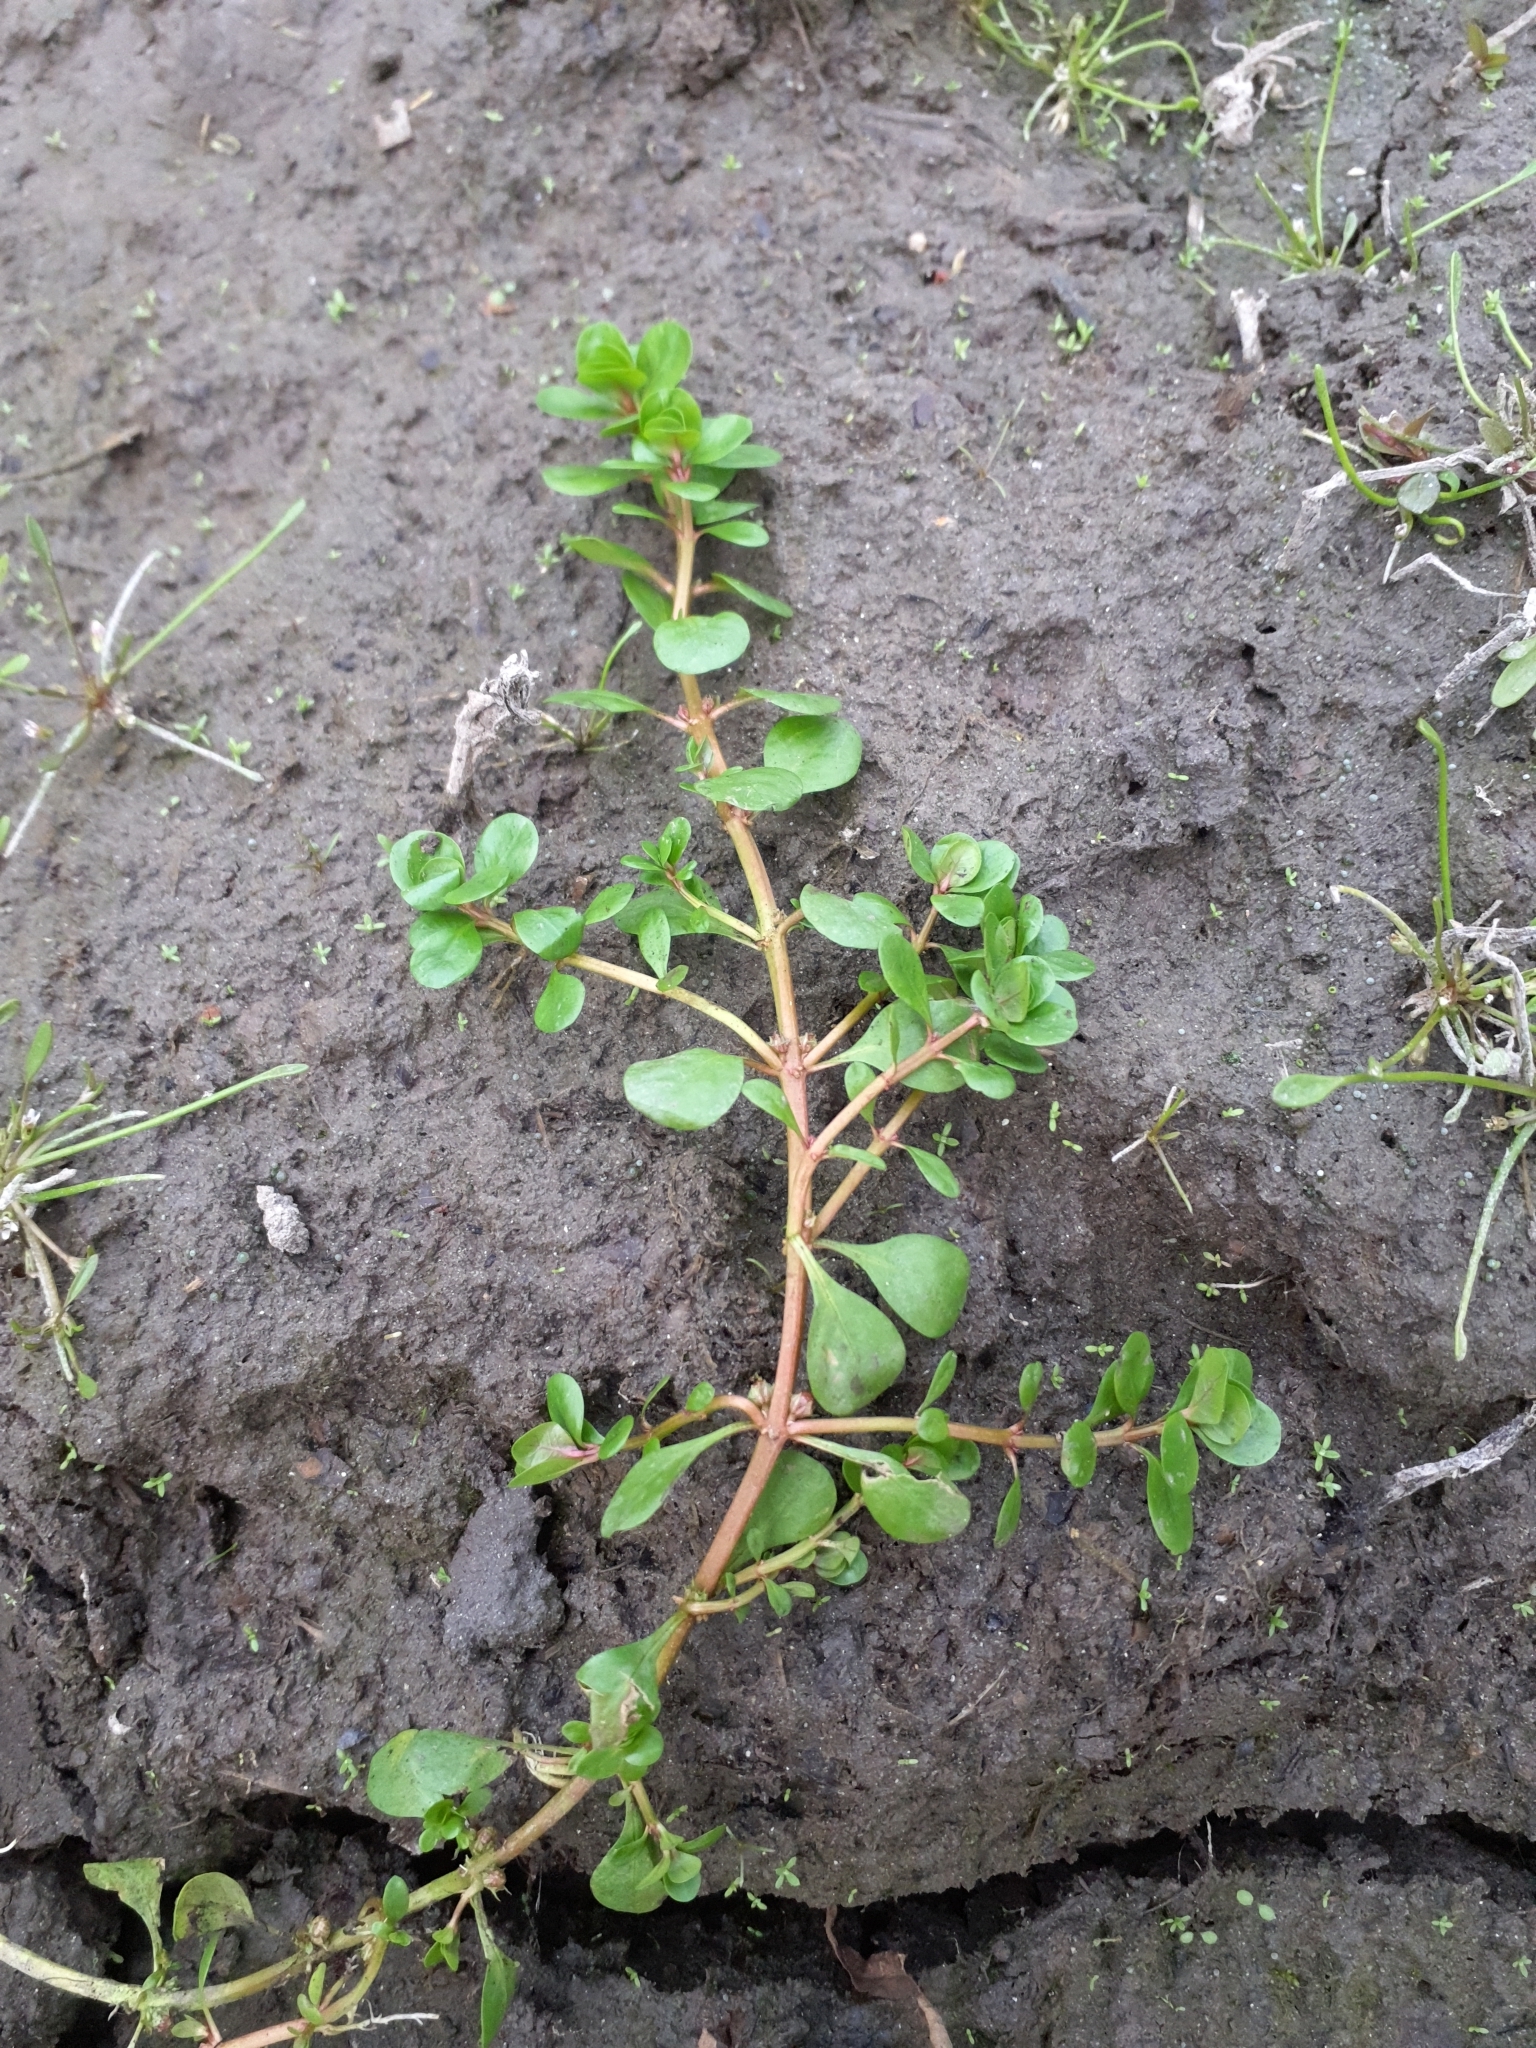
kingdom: Plantae
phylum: Tracheophyta
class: Magnoliopsida
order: Myrtales
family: Lythraceae
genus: Lythrum
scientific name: Lythrum portula
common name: Water purslane
